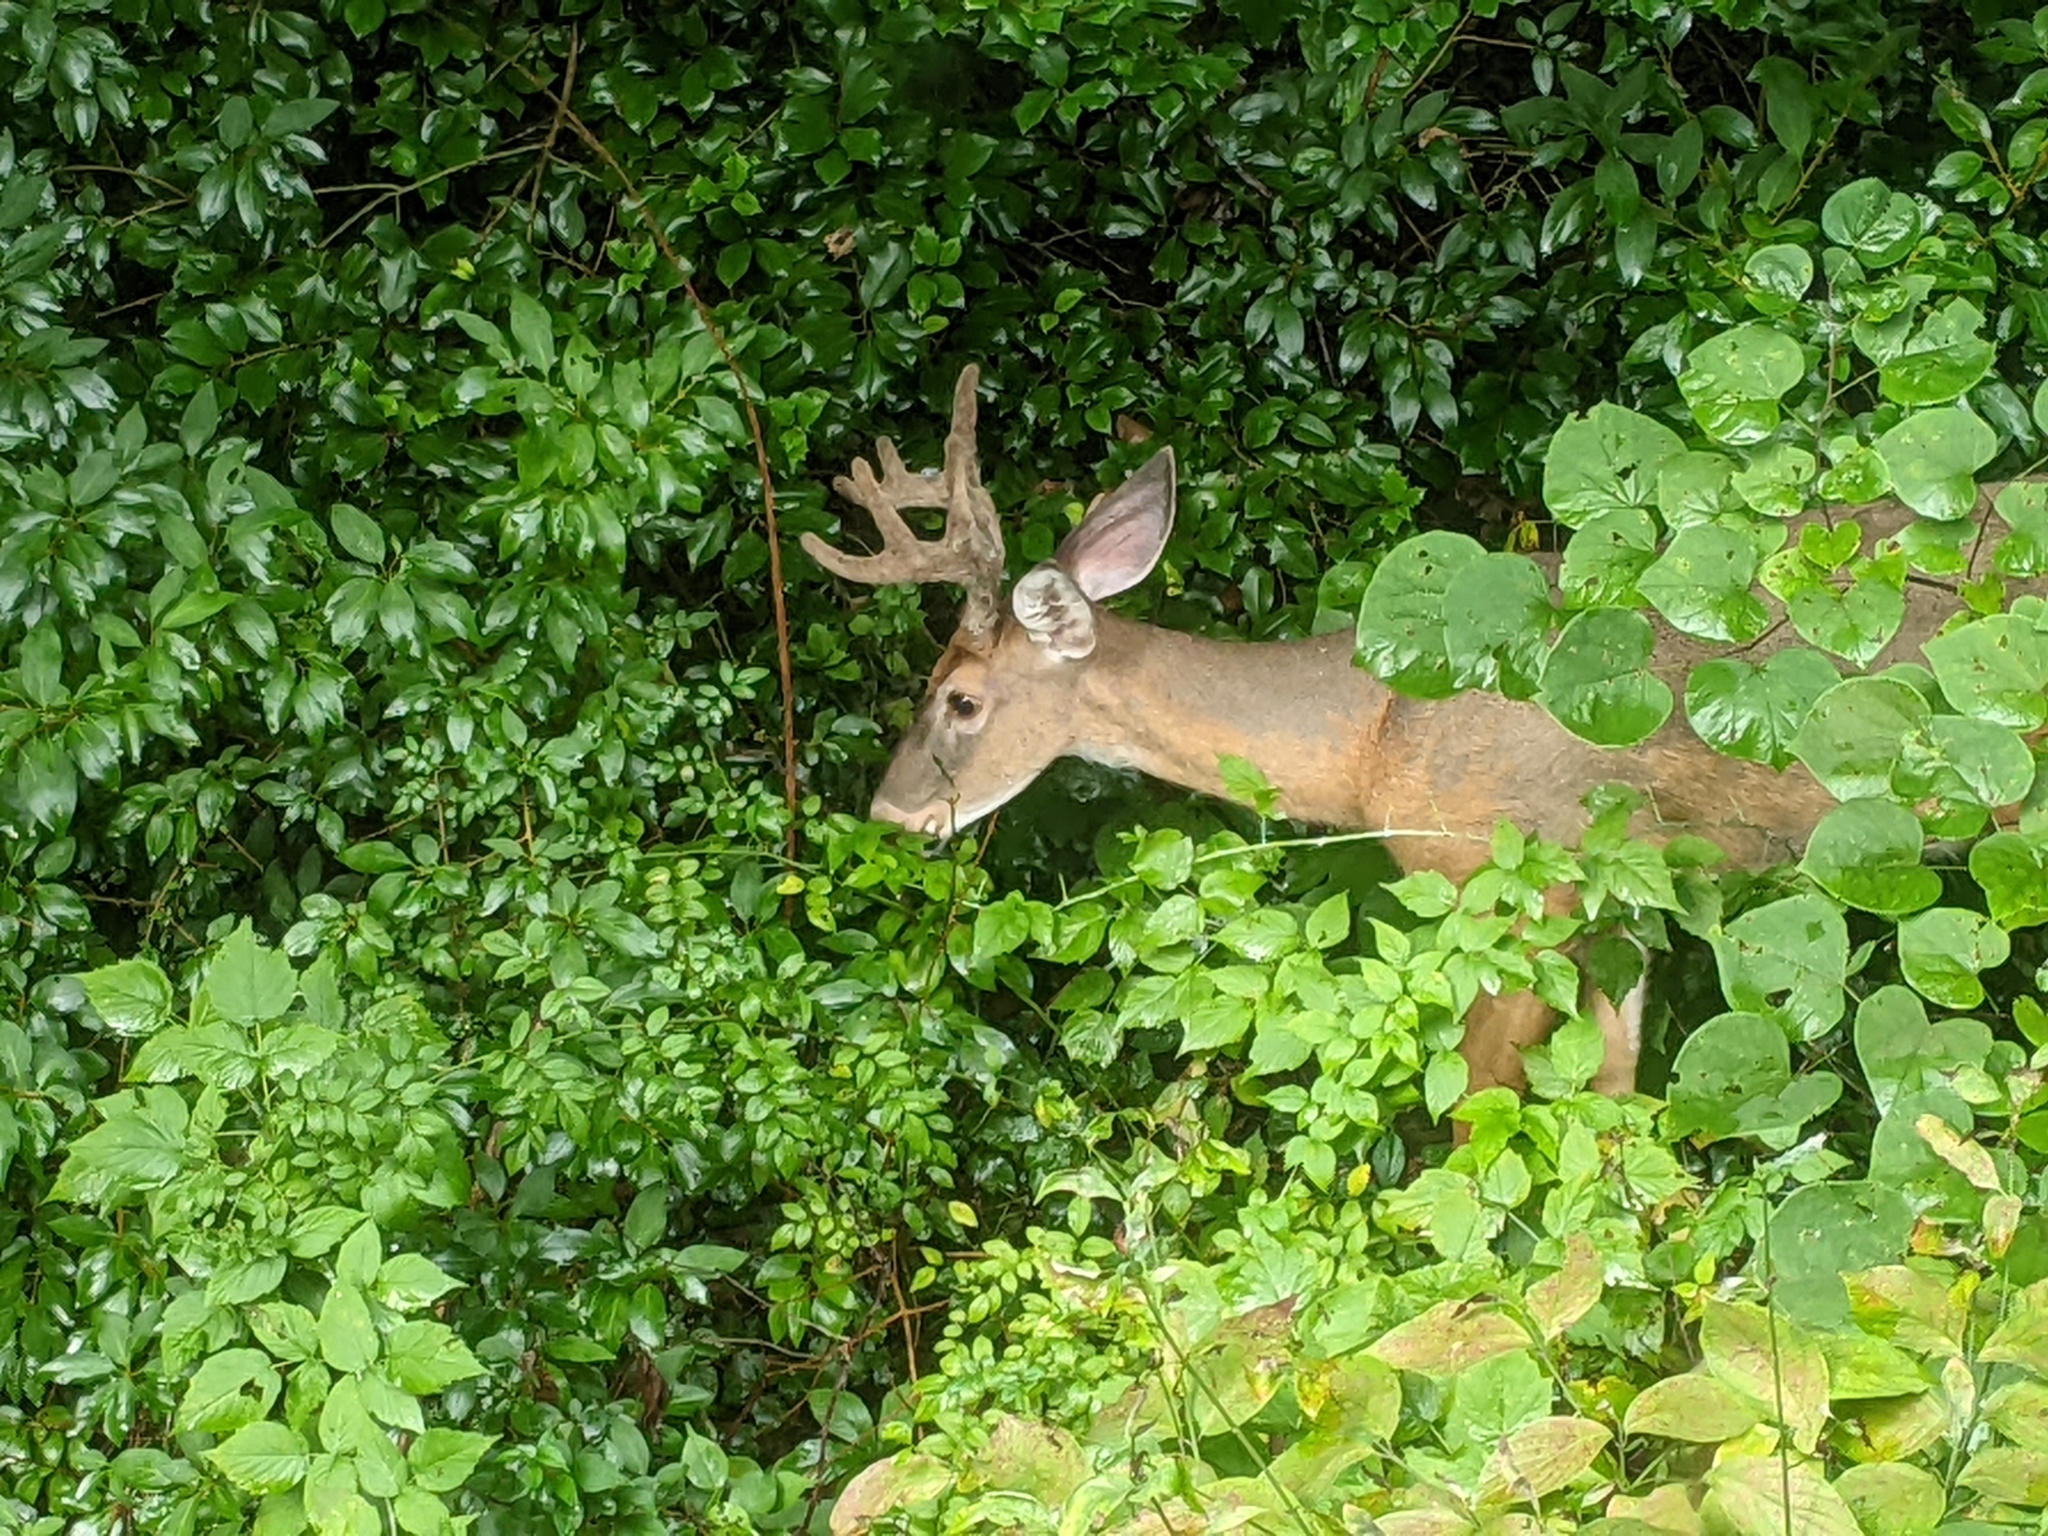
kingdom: Animalia
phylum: Chordata
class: Mammalia
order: Artiodactyla
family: Cervidae
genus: Odocoileus
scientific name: Odocoileus virginianus
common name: White-tailed deer
